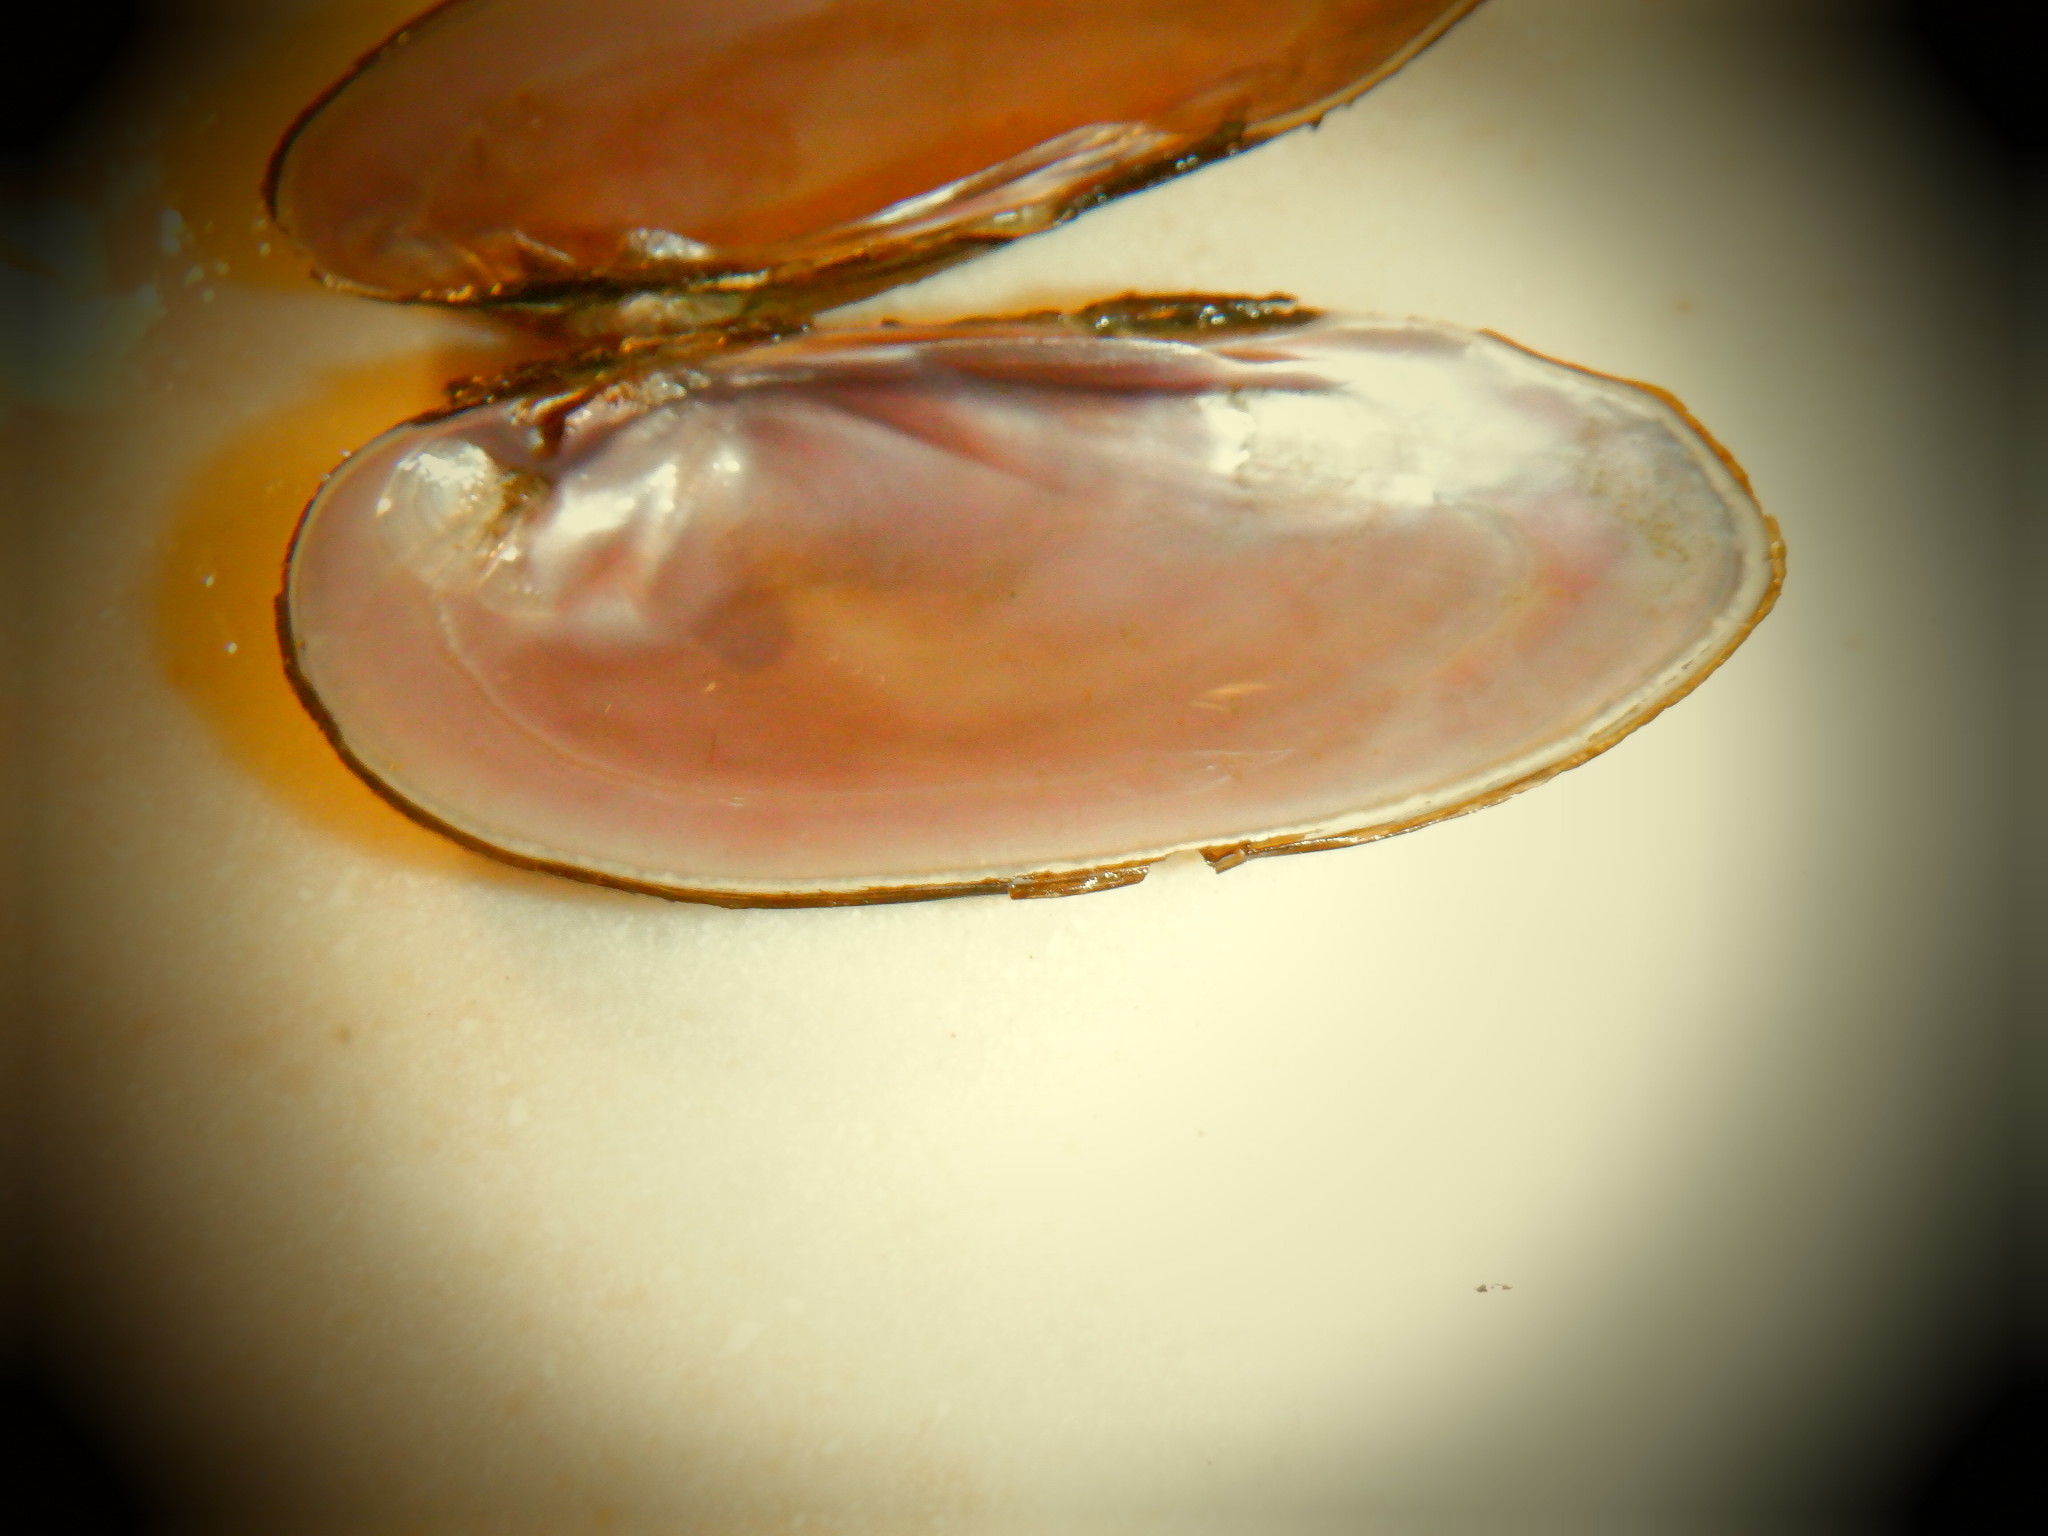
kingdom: Animalia
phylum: Mollusca
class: Bivalvia
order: Unionida
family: Unionidae
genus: Eurynia
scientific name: Eurynia dilatata
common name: Spike
